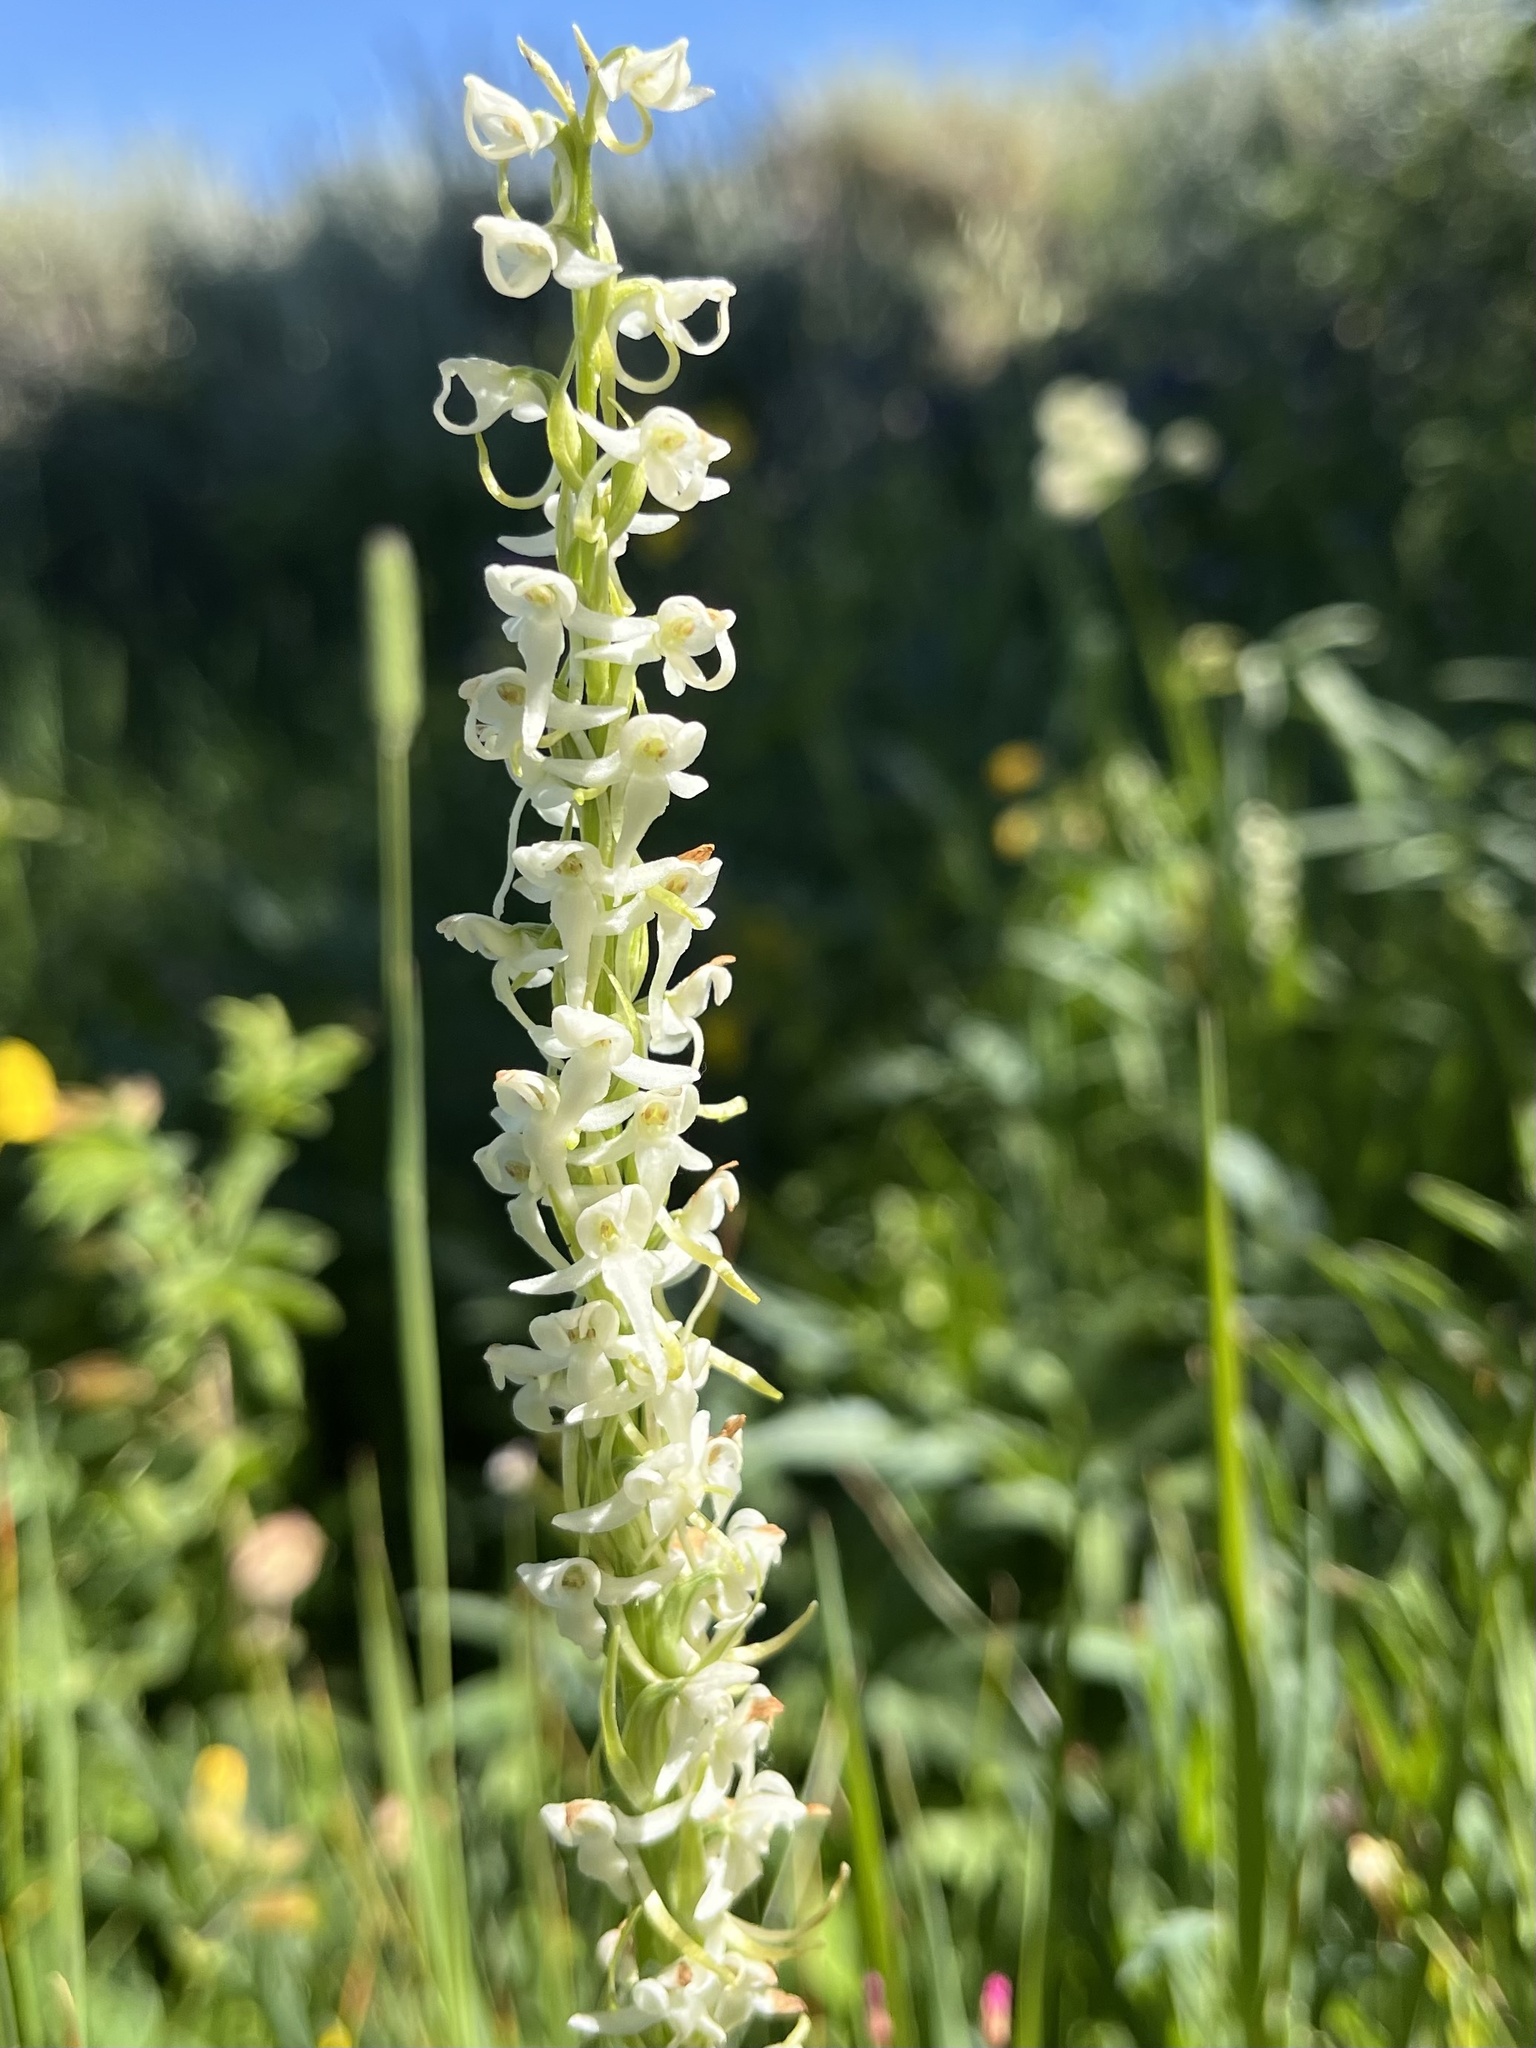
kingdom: Plantae
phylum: Tracheophyta
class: Liliopsida
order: Asparagales
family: Orchidaceae
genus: Platanthera
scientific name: Platanthera dilatata
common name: Bog candles
